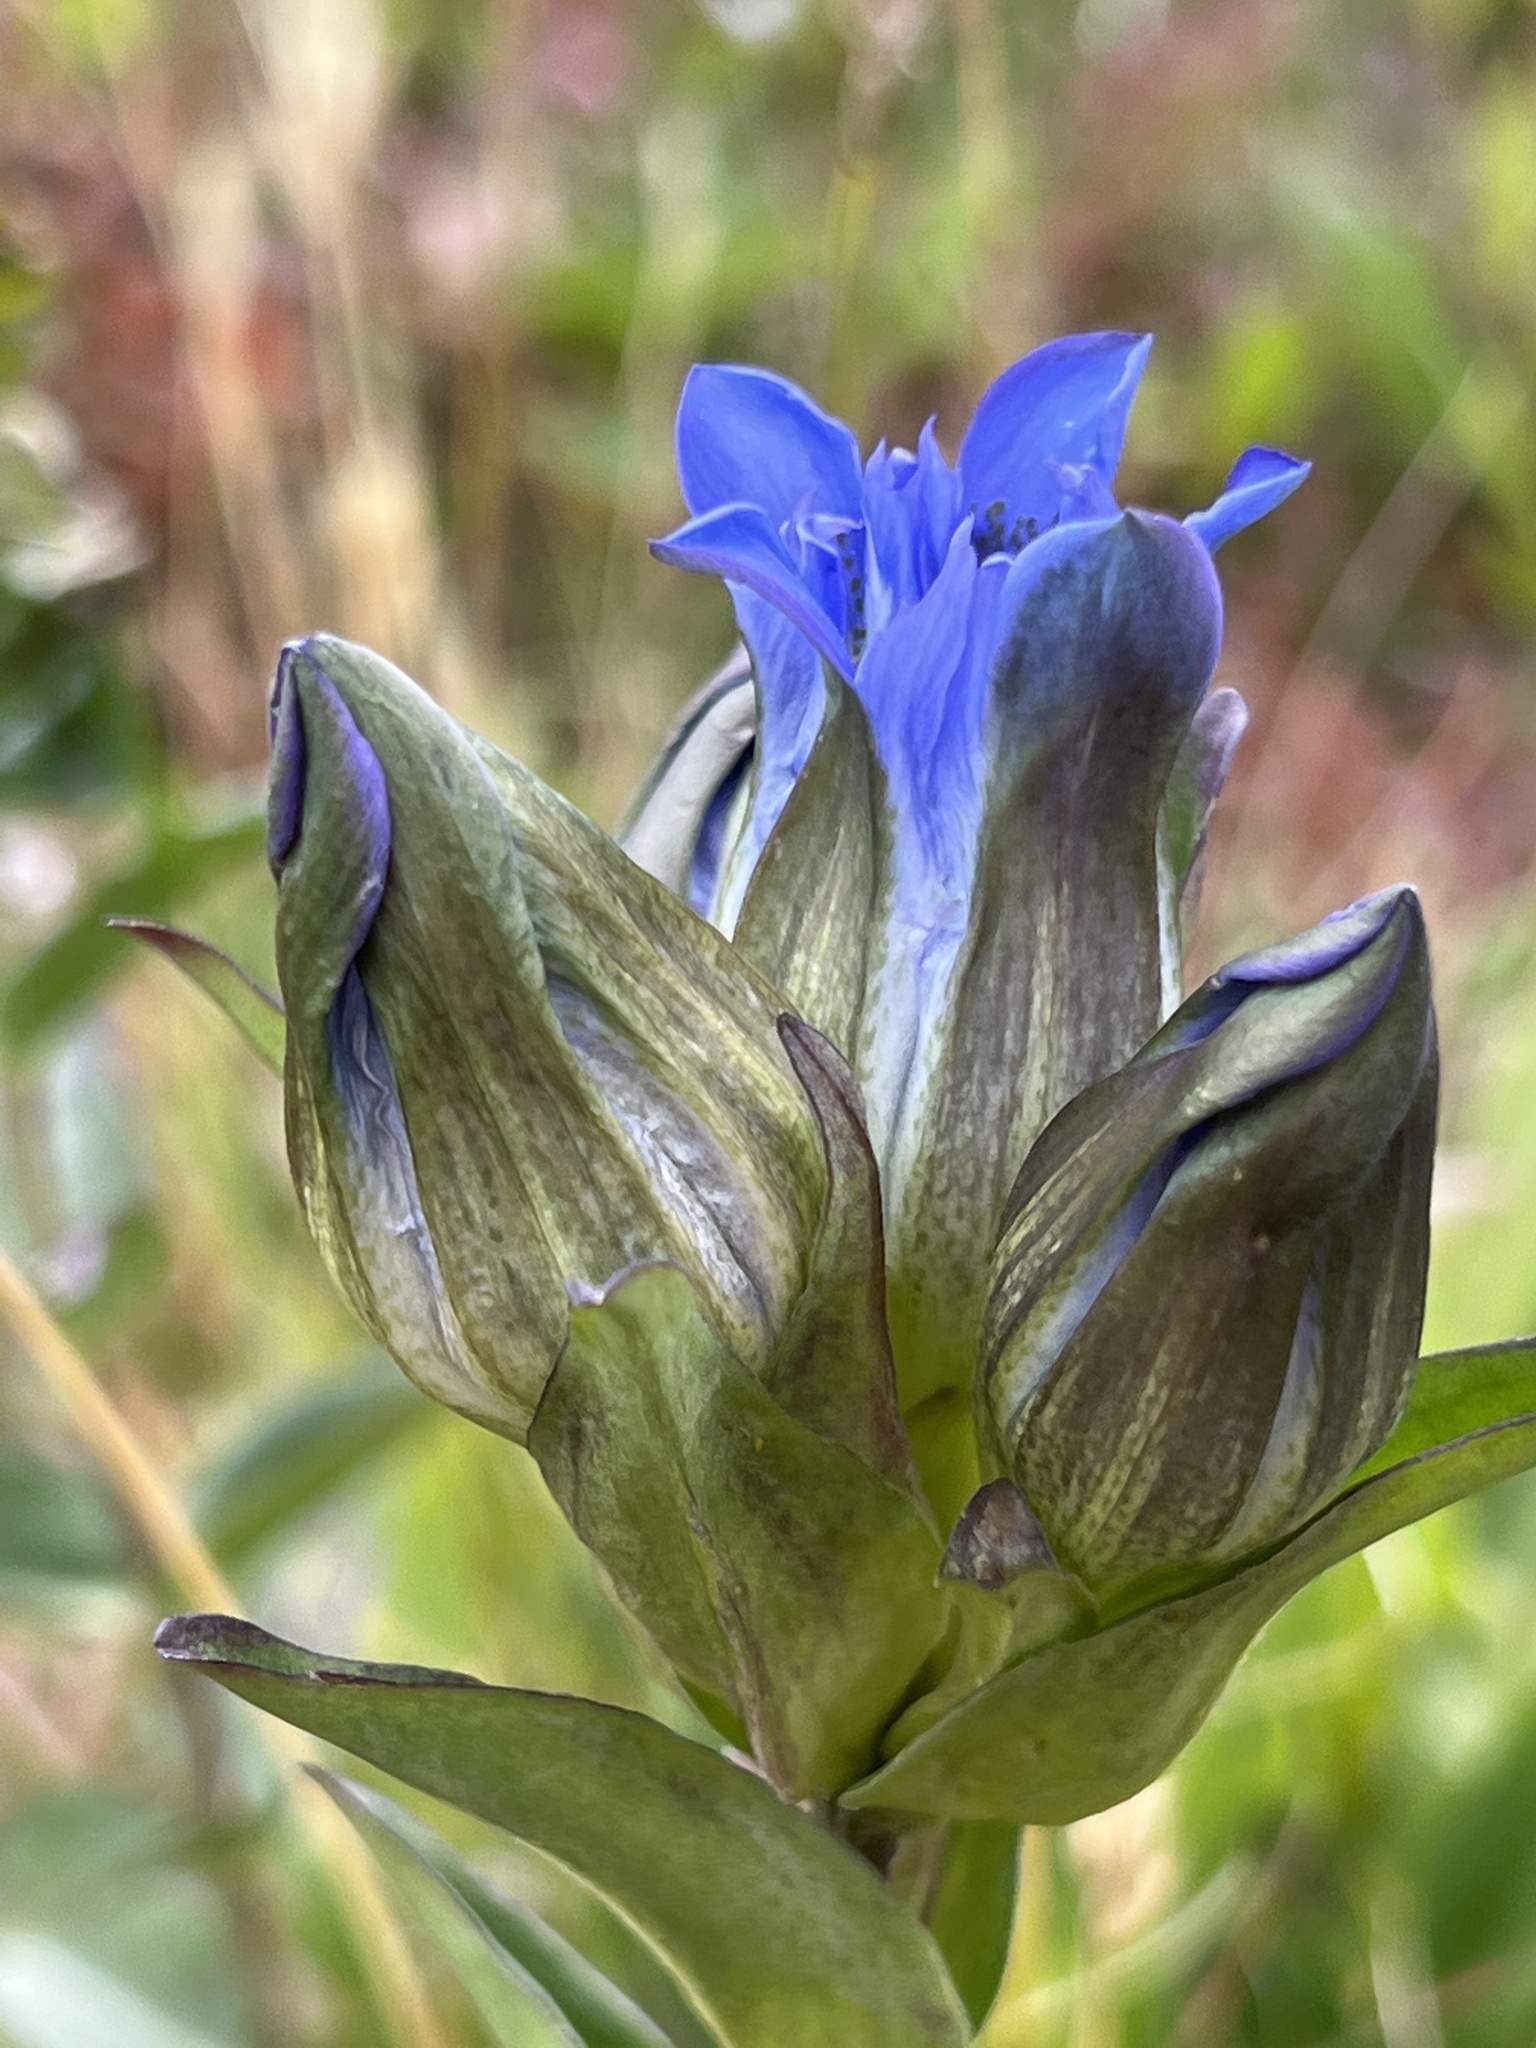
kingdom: Plantae
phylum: Tracheophyta
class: Magnoliopsida
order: Gentianales
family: Gentianaceae
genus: Gentiana
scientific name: Gentiana parryi
